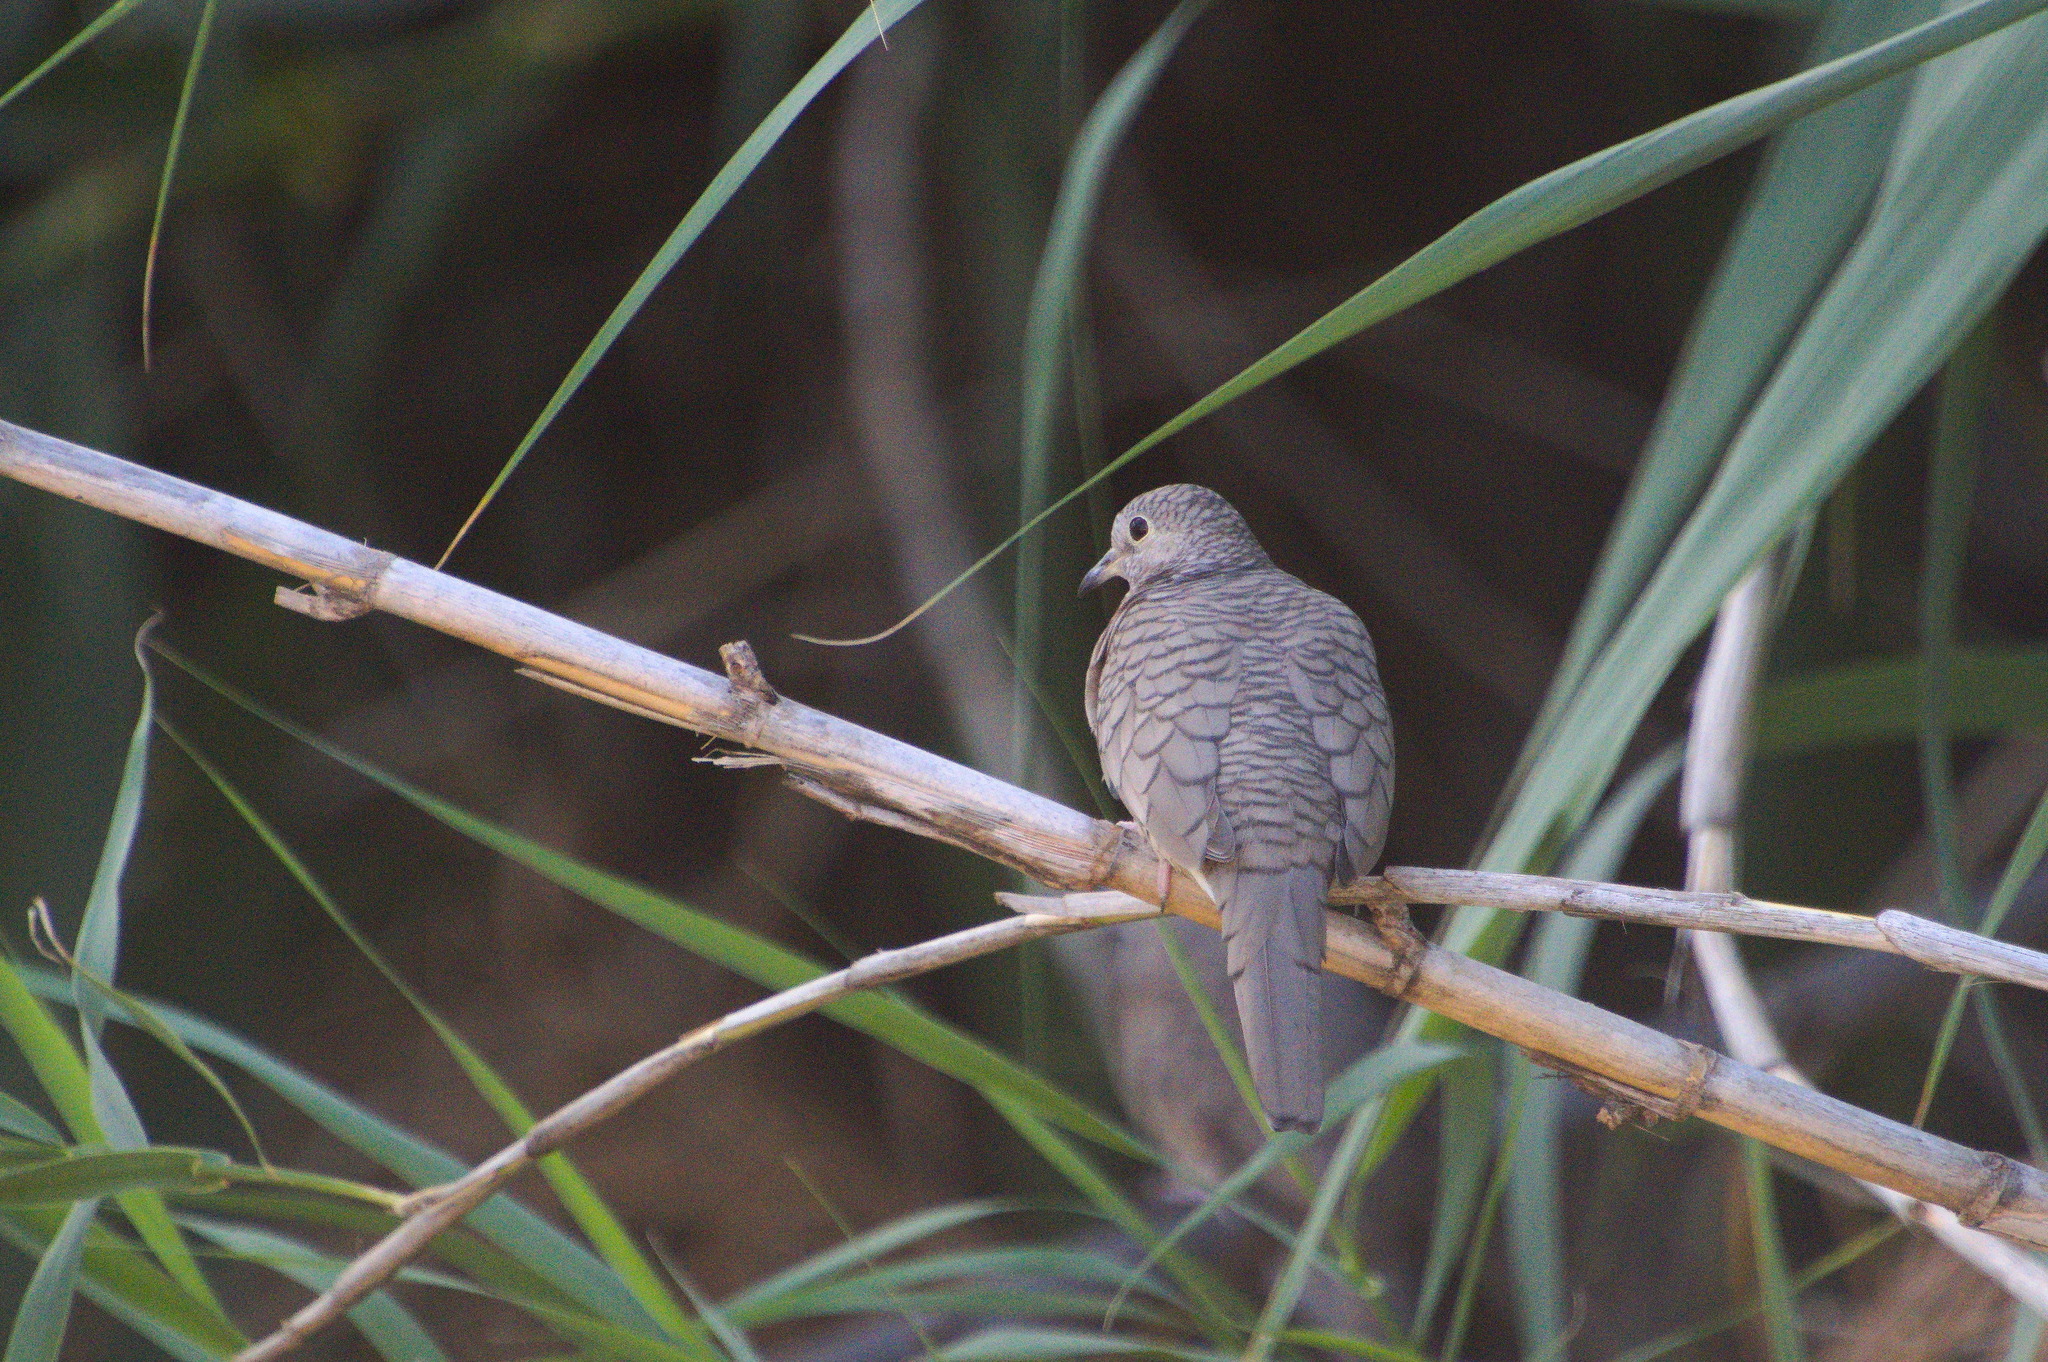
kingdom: Animalia
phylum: Chordata
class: Aves
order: Columbiformes
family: Columbidae
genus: Columbina
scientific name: Columbina inca
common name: Inca dove
